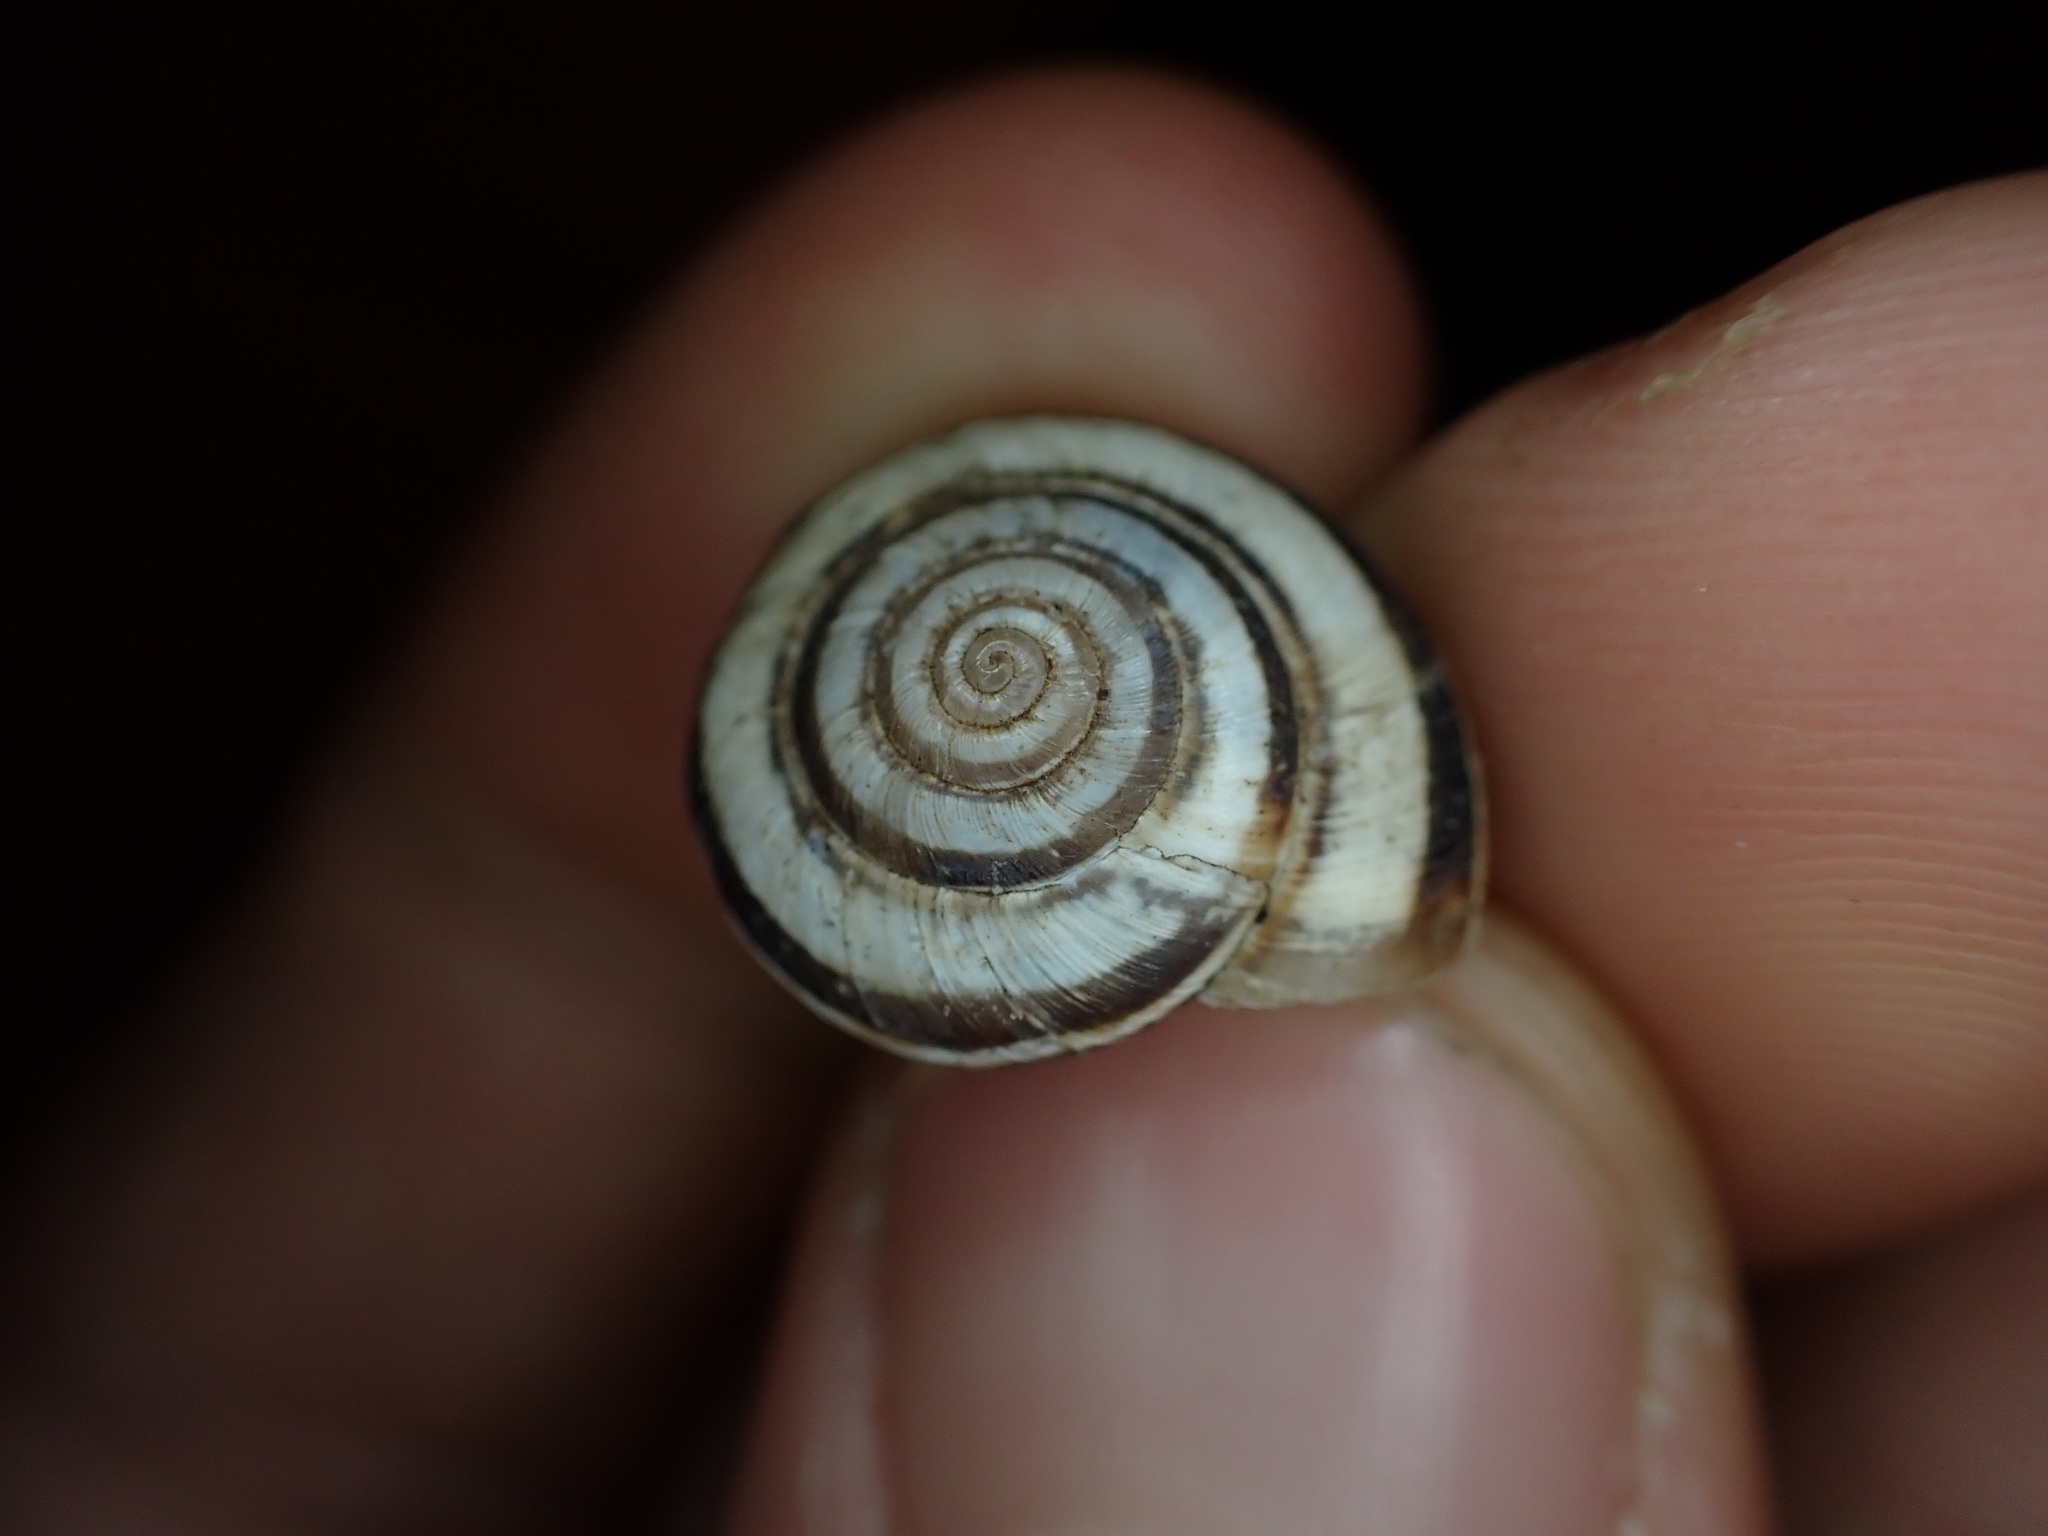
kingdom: Animalia
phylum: Mollusca
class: Gastropoda
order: Stylommatophora
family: Geomitridae
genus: Cernuella
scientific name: Cernuella virgata
